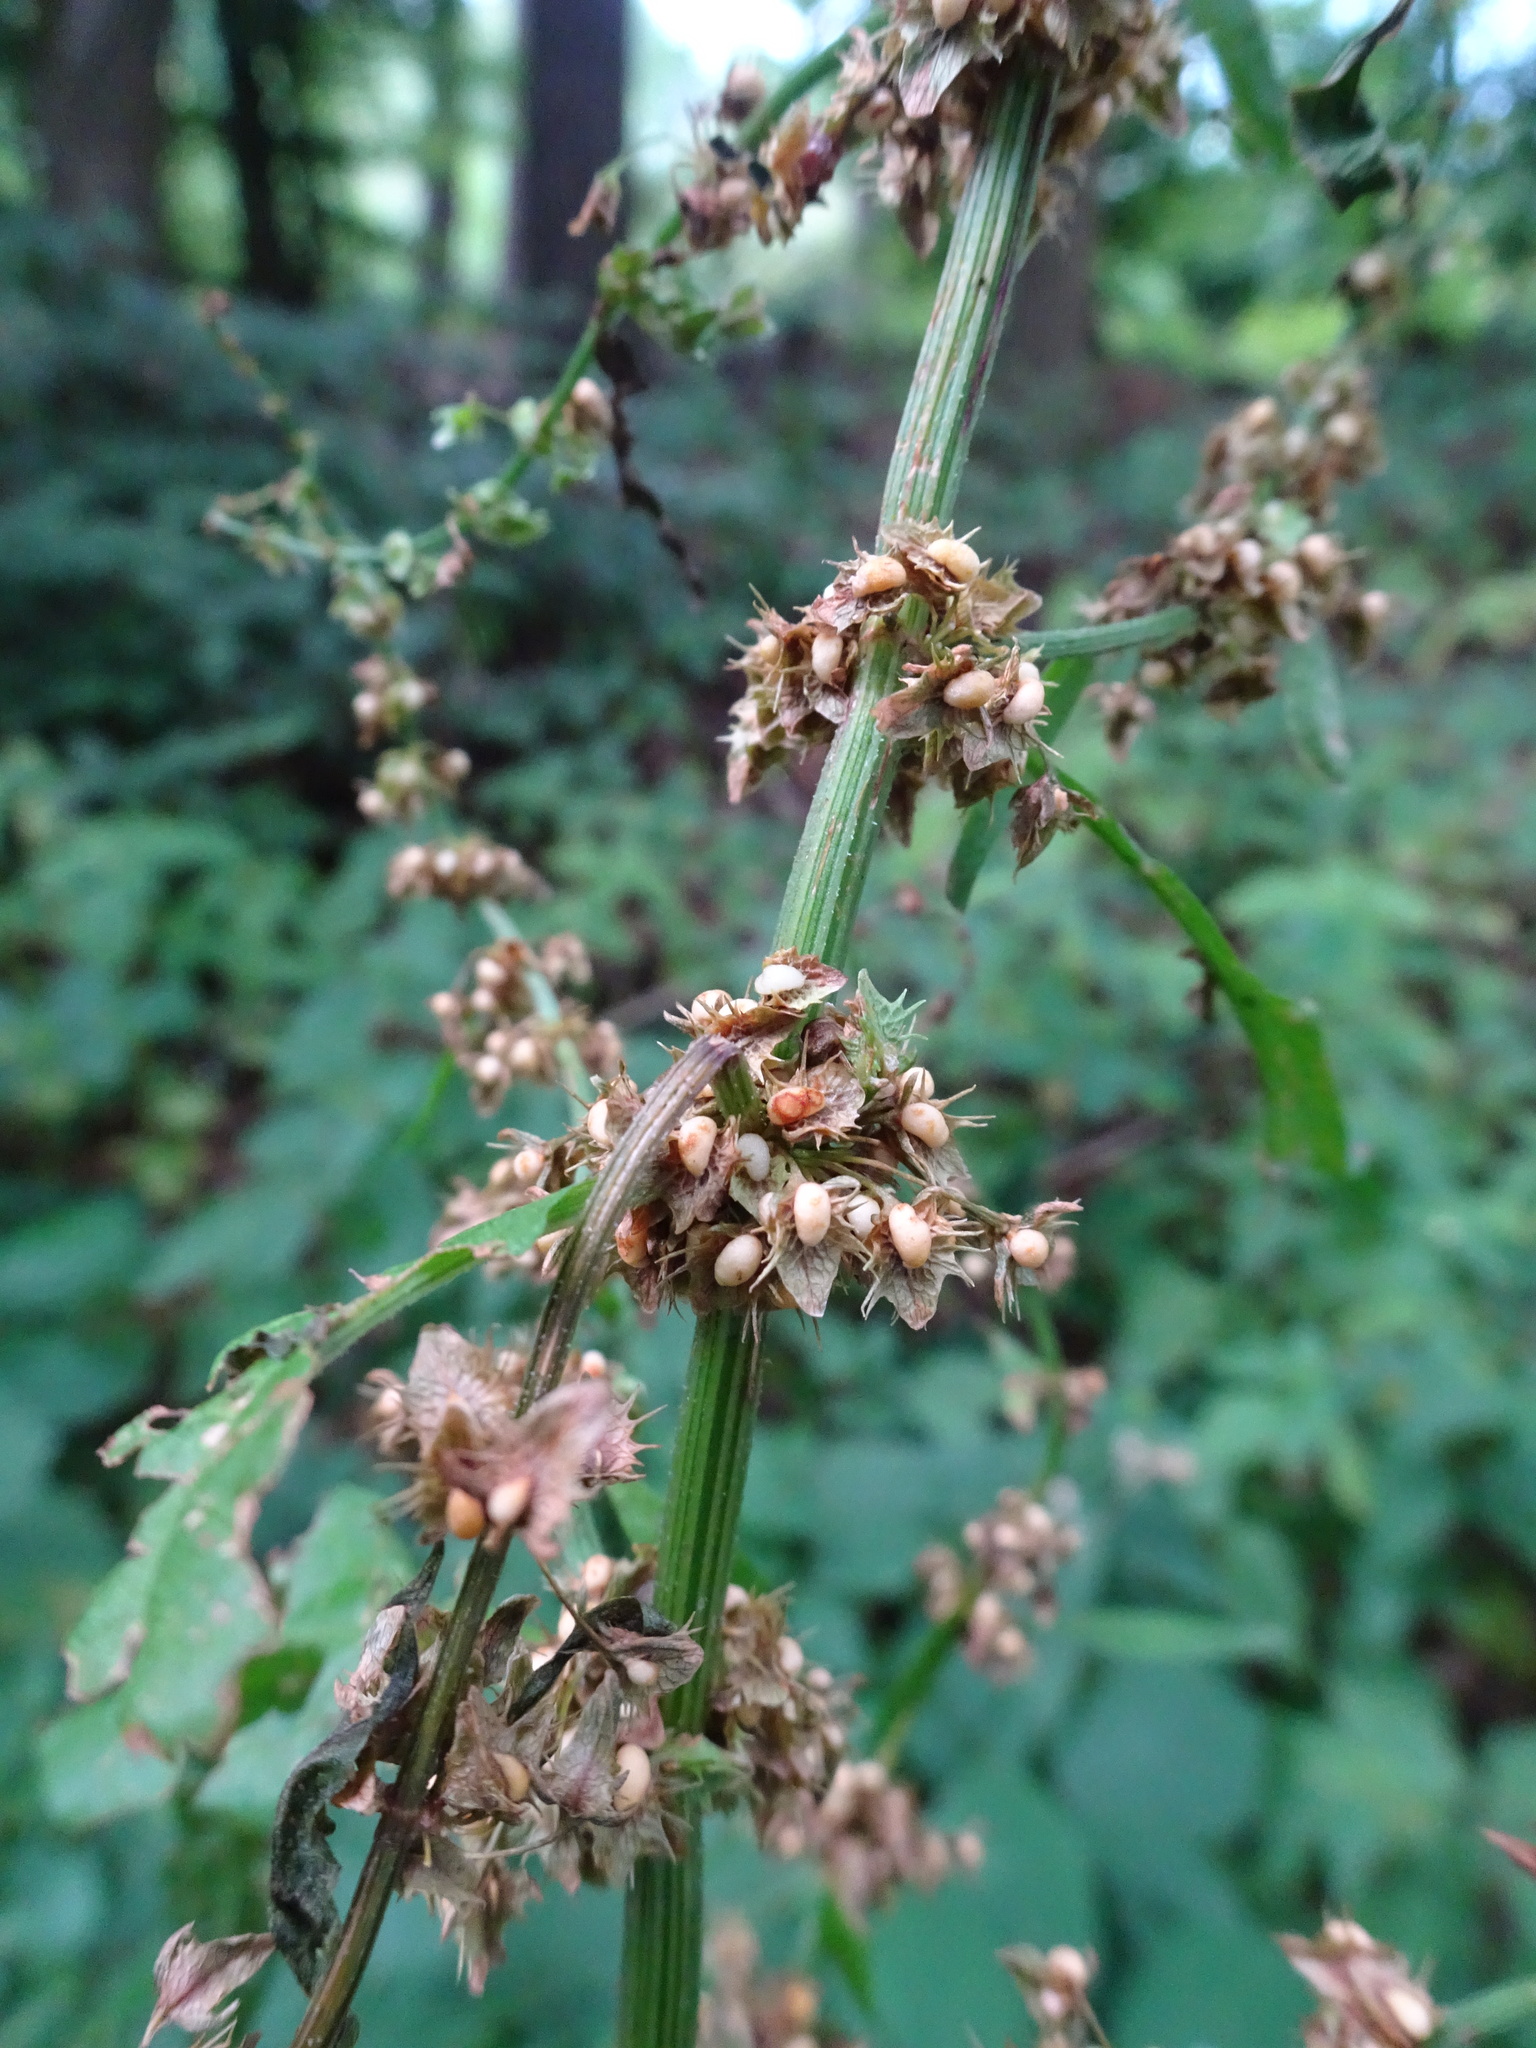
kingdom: Plantae
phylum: Tracheophyta
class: Magnoliopsida
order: Caryophyllales
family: Polygonaceae
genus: Rumex
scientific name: Rumex obtusifolius
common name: Bitter dock
